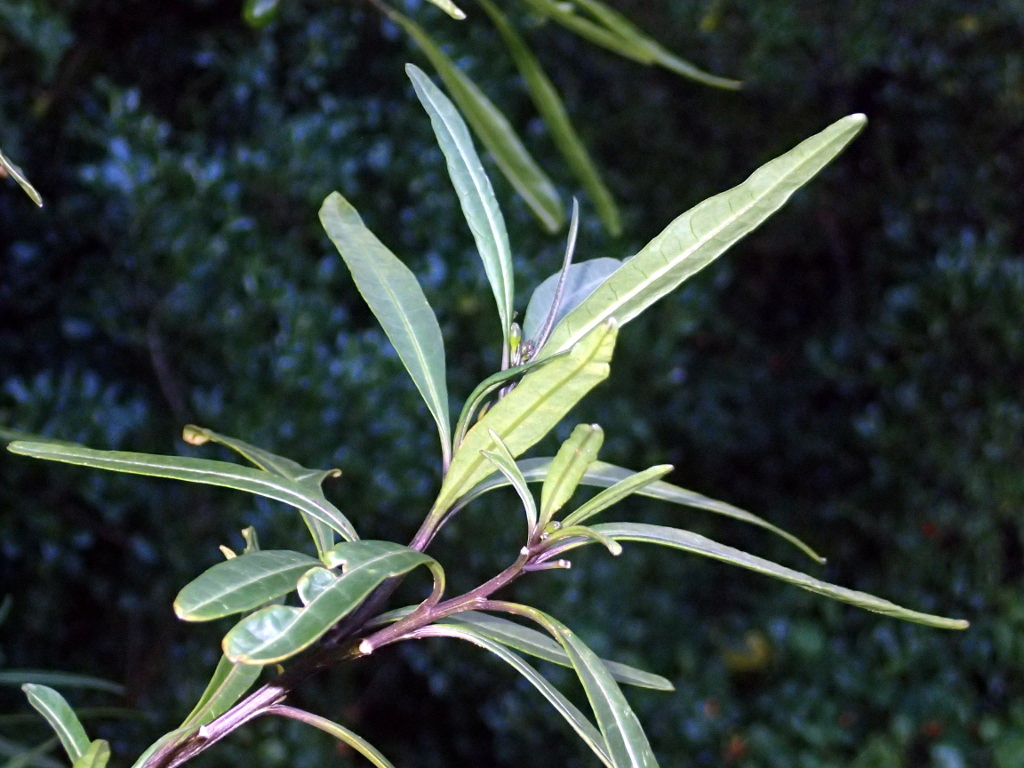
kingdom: Plantae
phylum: Tracheophyta
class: Magnoliopsida
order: Solanales
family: Solanaceae
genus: Solanum
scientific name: Solanum laciniatum
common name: Kangaroo-apple
